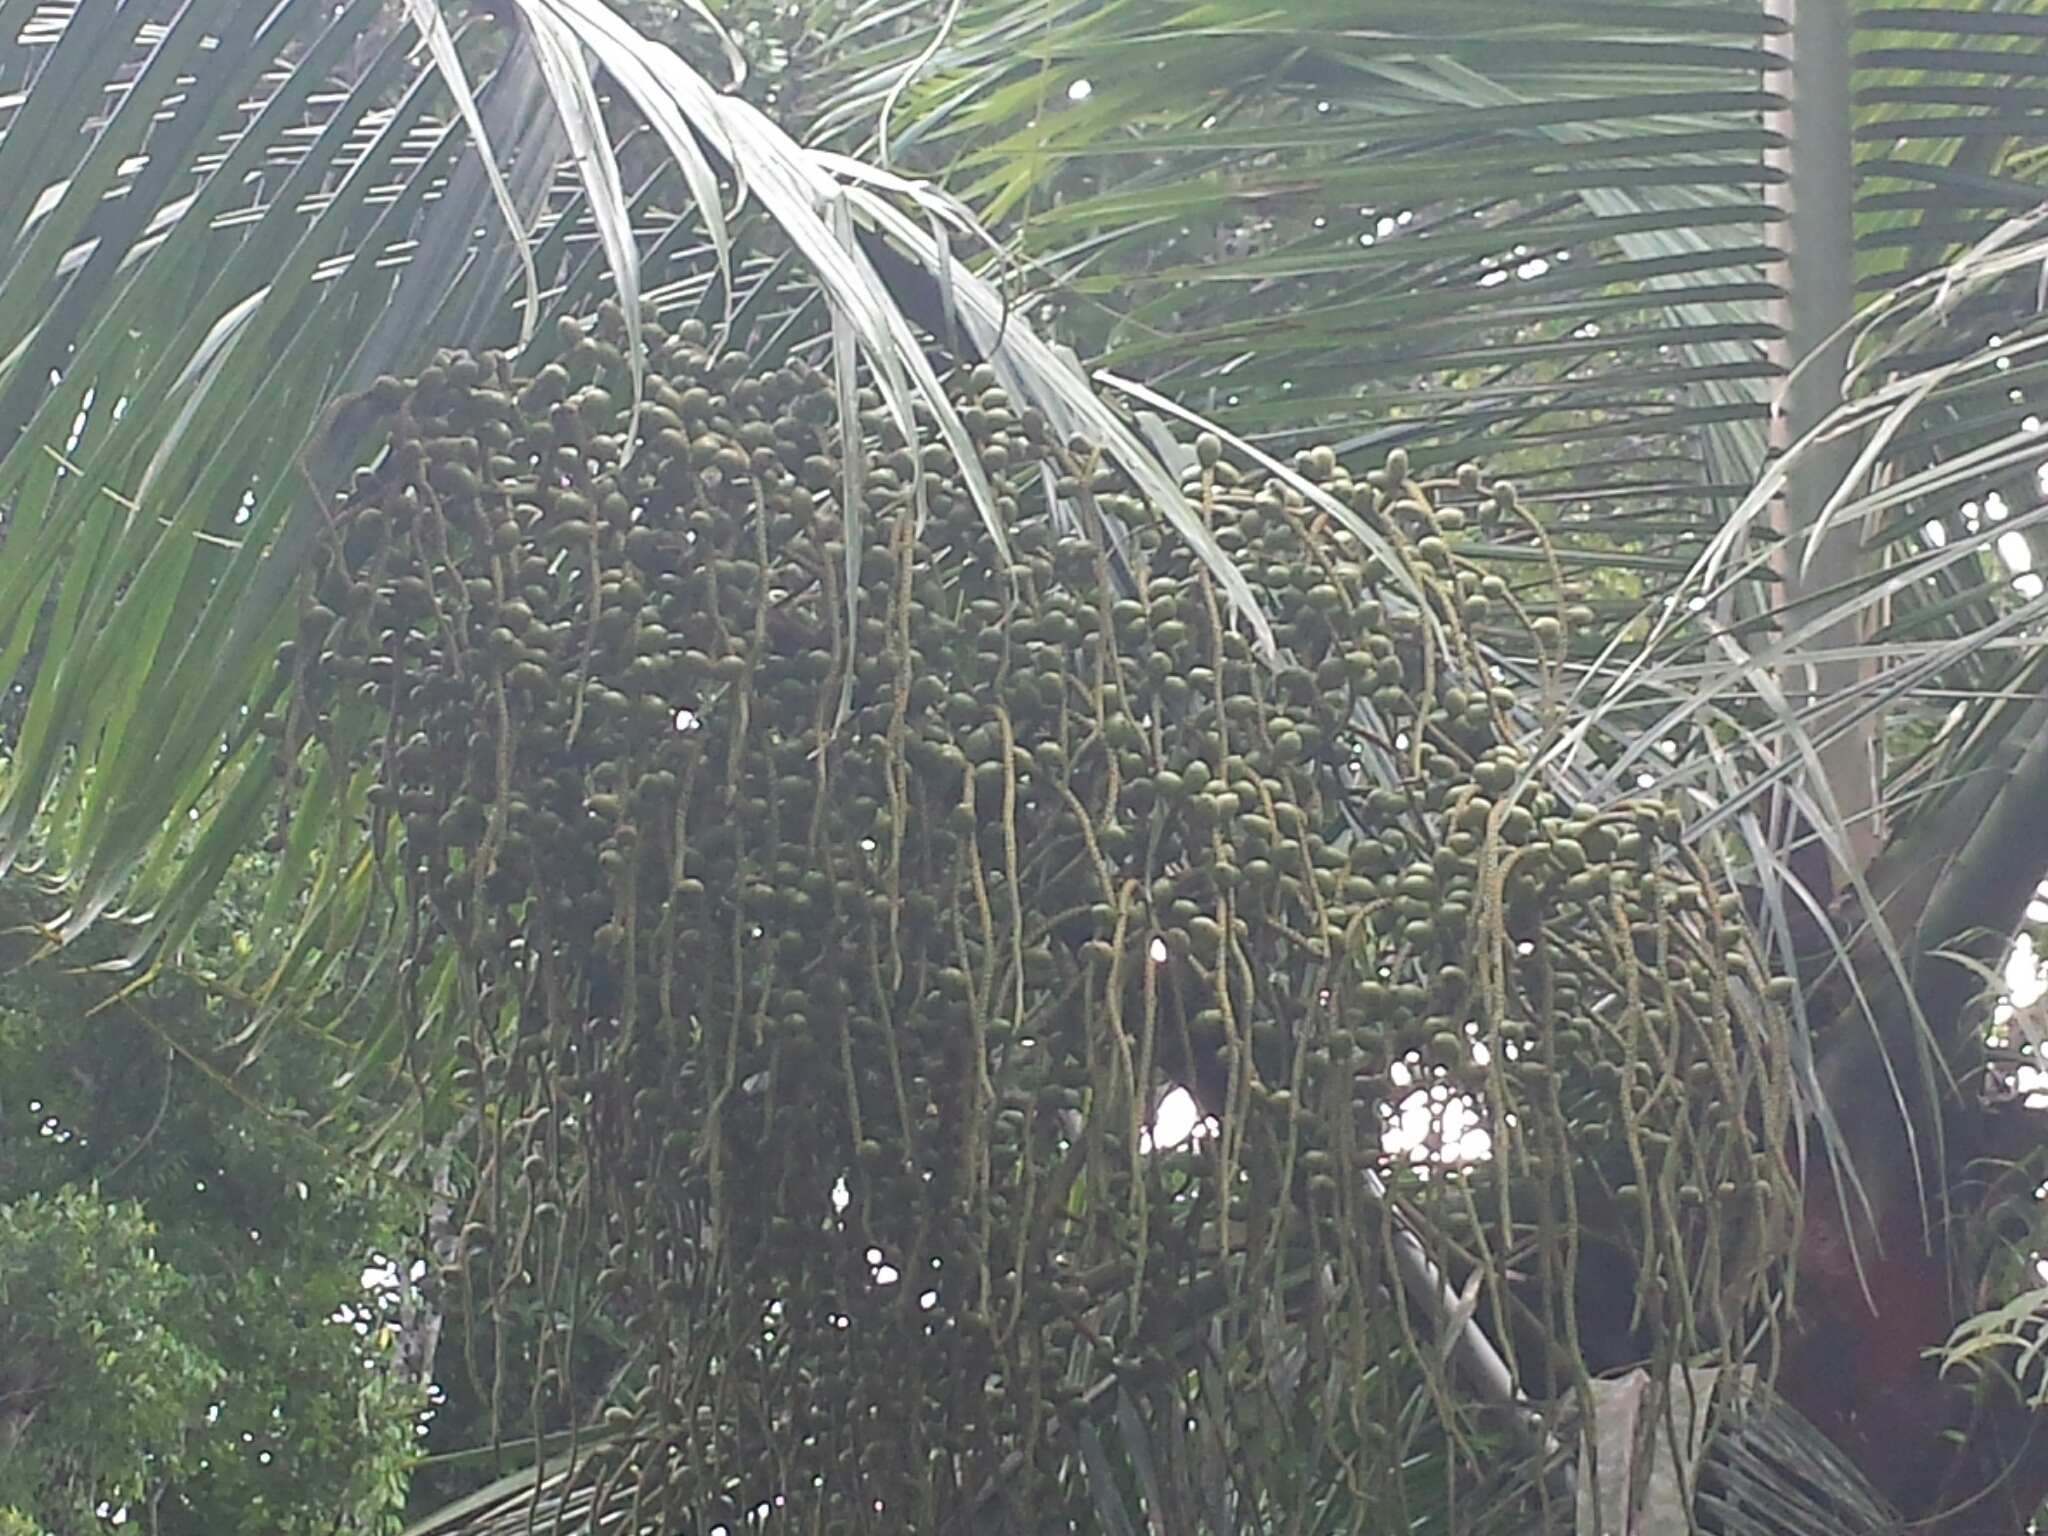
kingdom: Plantae
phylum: Tracheophyta
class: Liliopsida
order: Arecales
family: Arecaceae
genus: Dypsis
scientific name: Dypsis lastelliana
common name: Redneck palm
